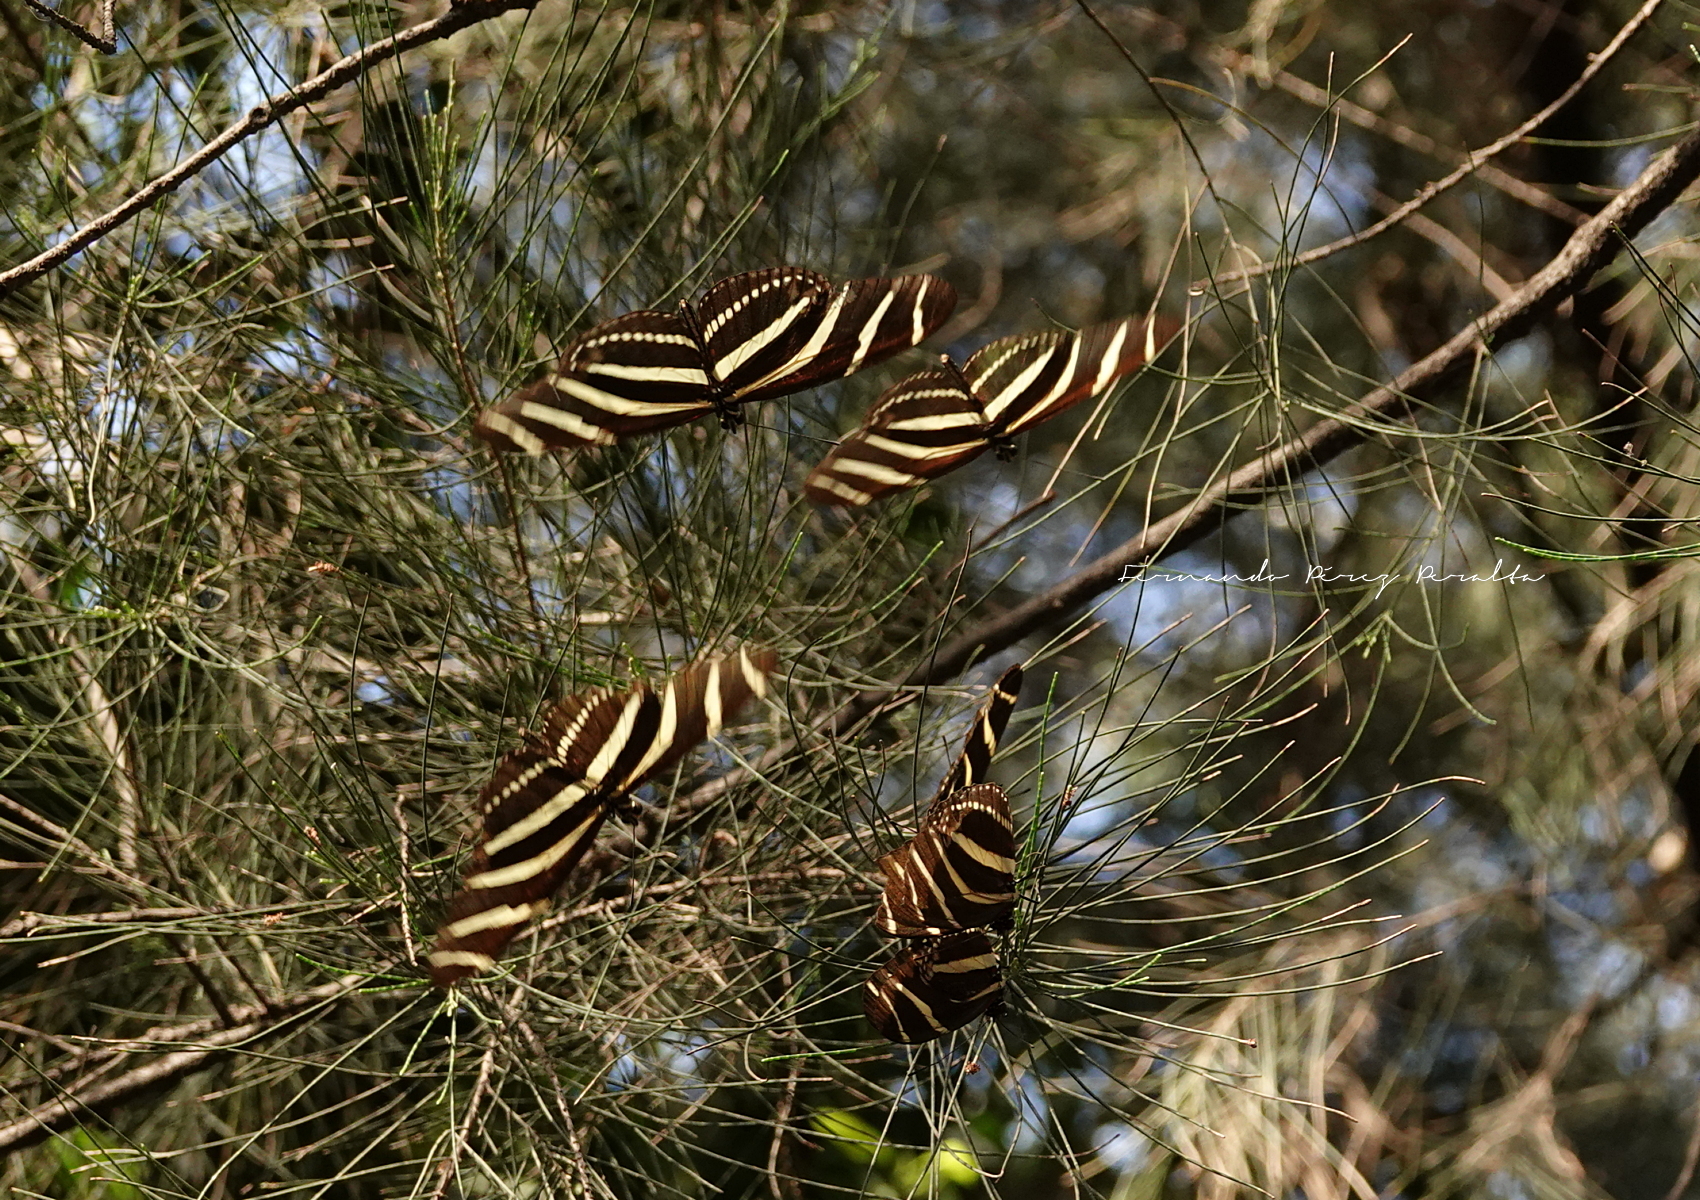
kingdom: Animalia
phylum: Arthropoda
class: Insecta
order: Lepidoptera
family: Nymphalidae
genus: Heliconius
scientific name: Heliconius charithonia
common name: Zebra long wing
